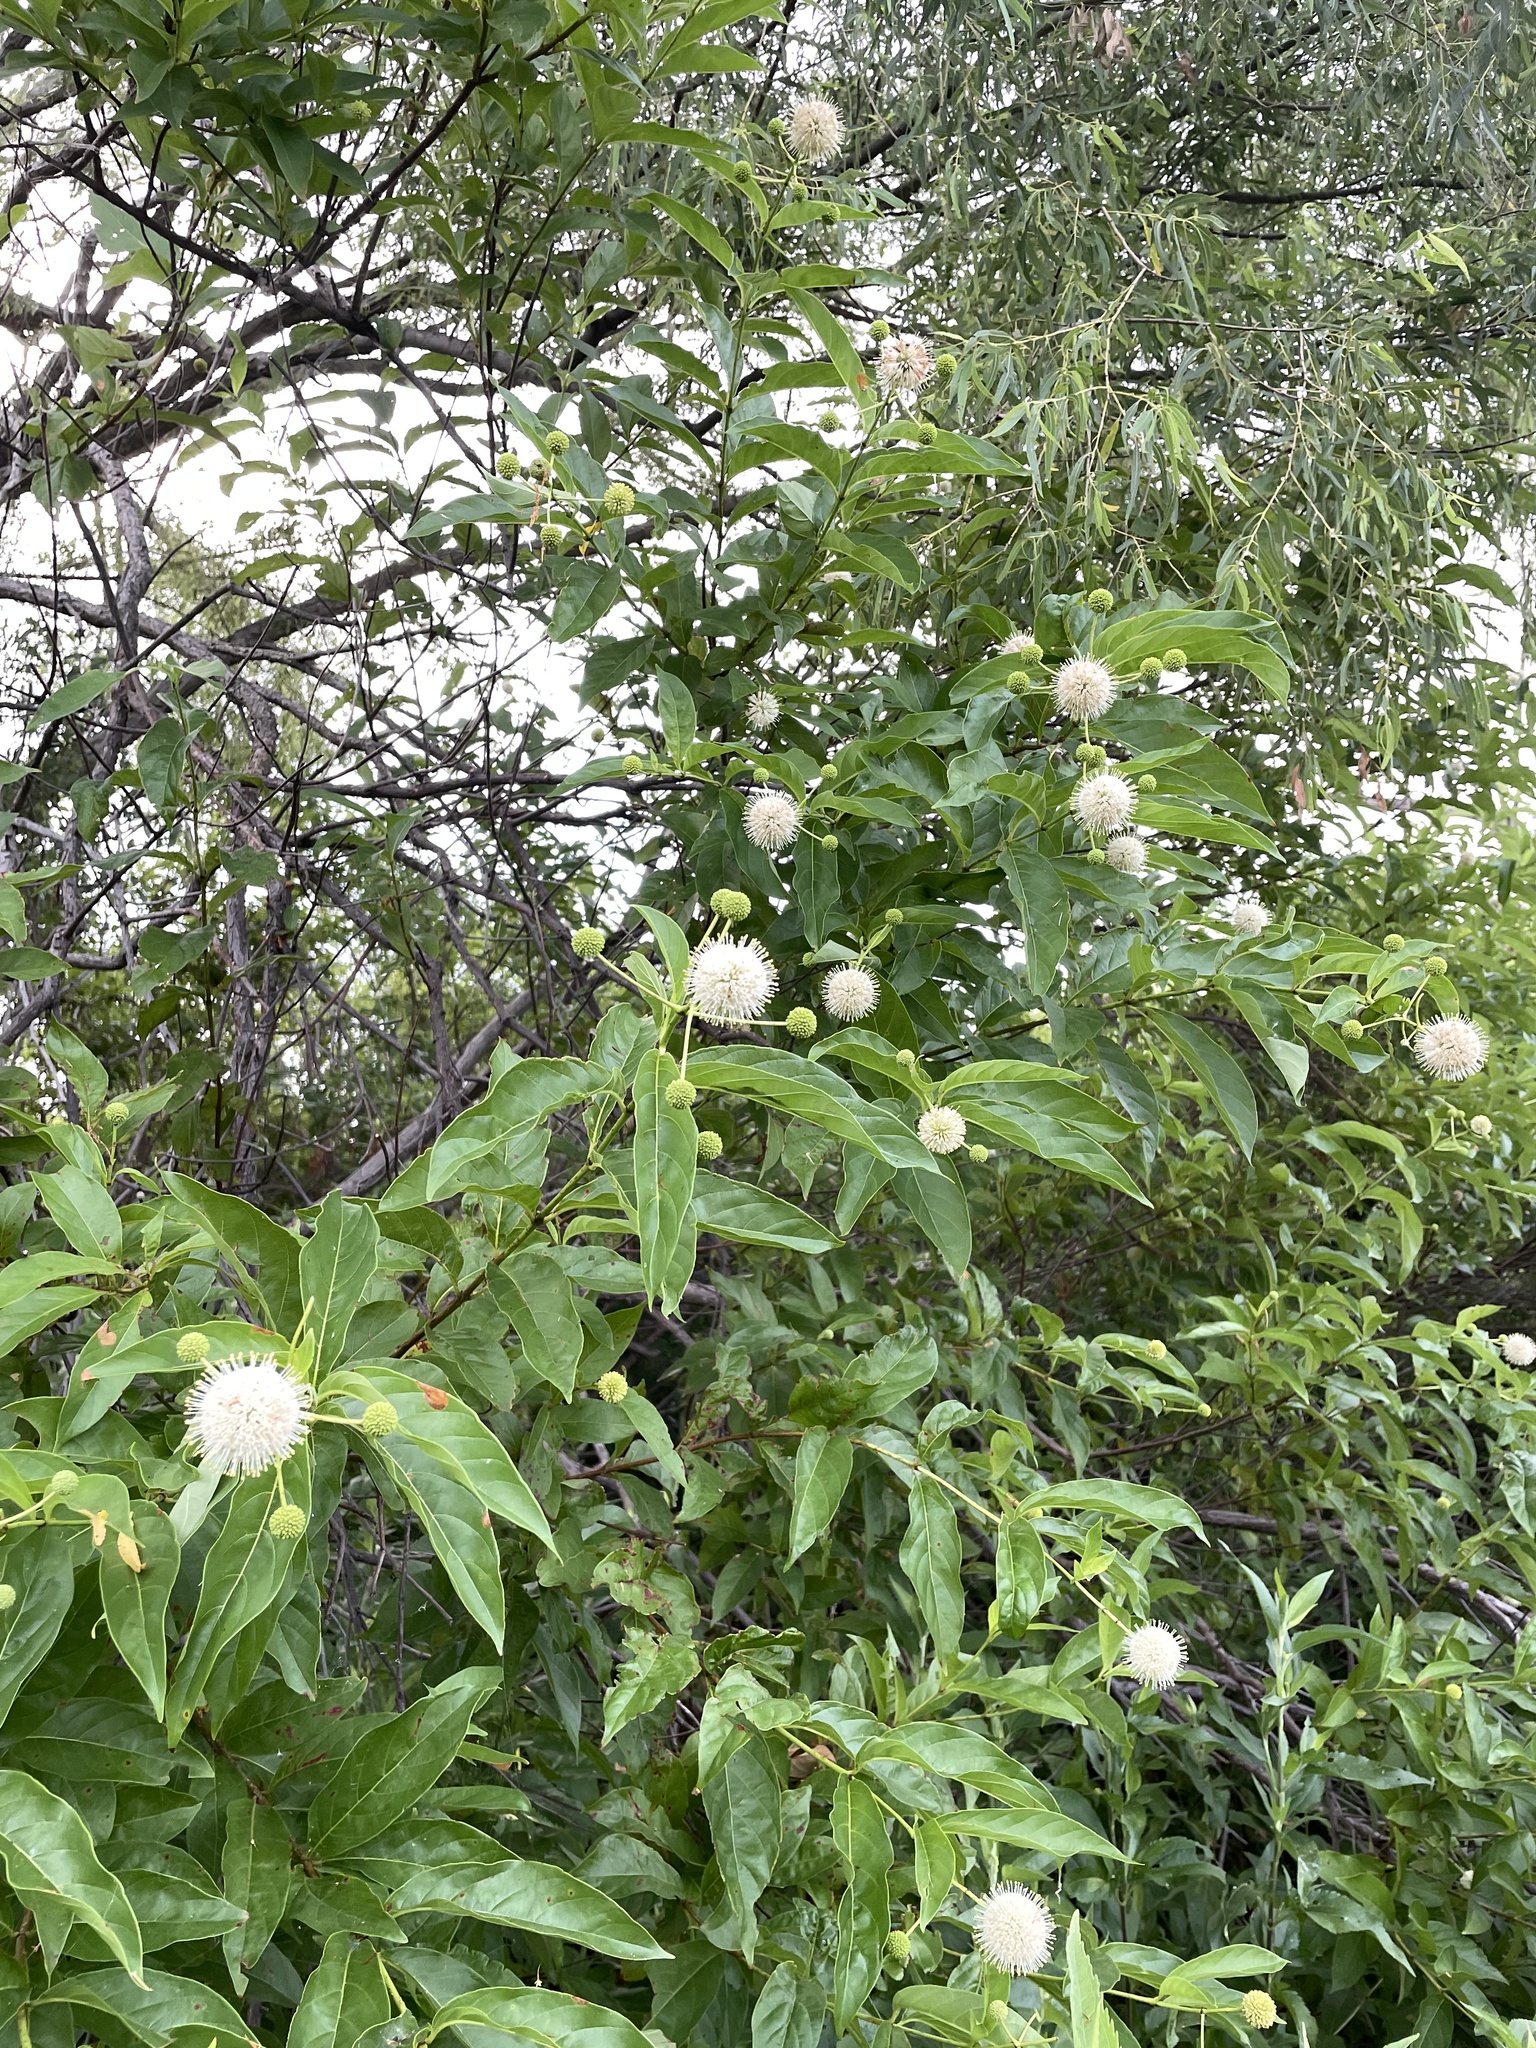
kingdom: Plantae
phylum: Tracheophyta
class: Magnoliopsida
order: Gentianales
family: Rubiaceae
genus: Cephalanthus
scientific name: Cephalanthus occidentalis
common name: Button-willow
